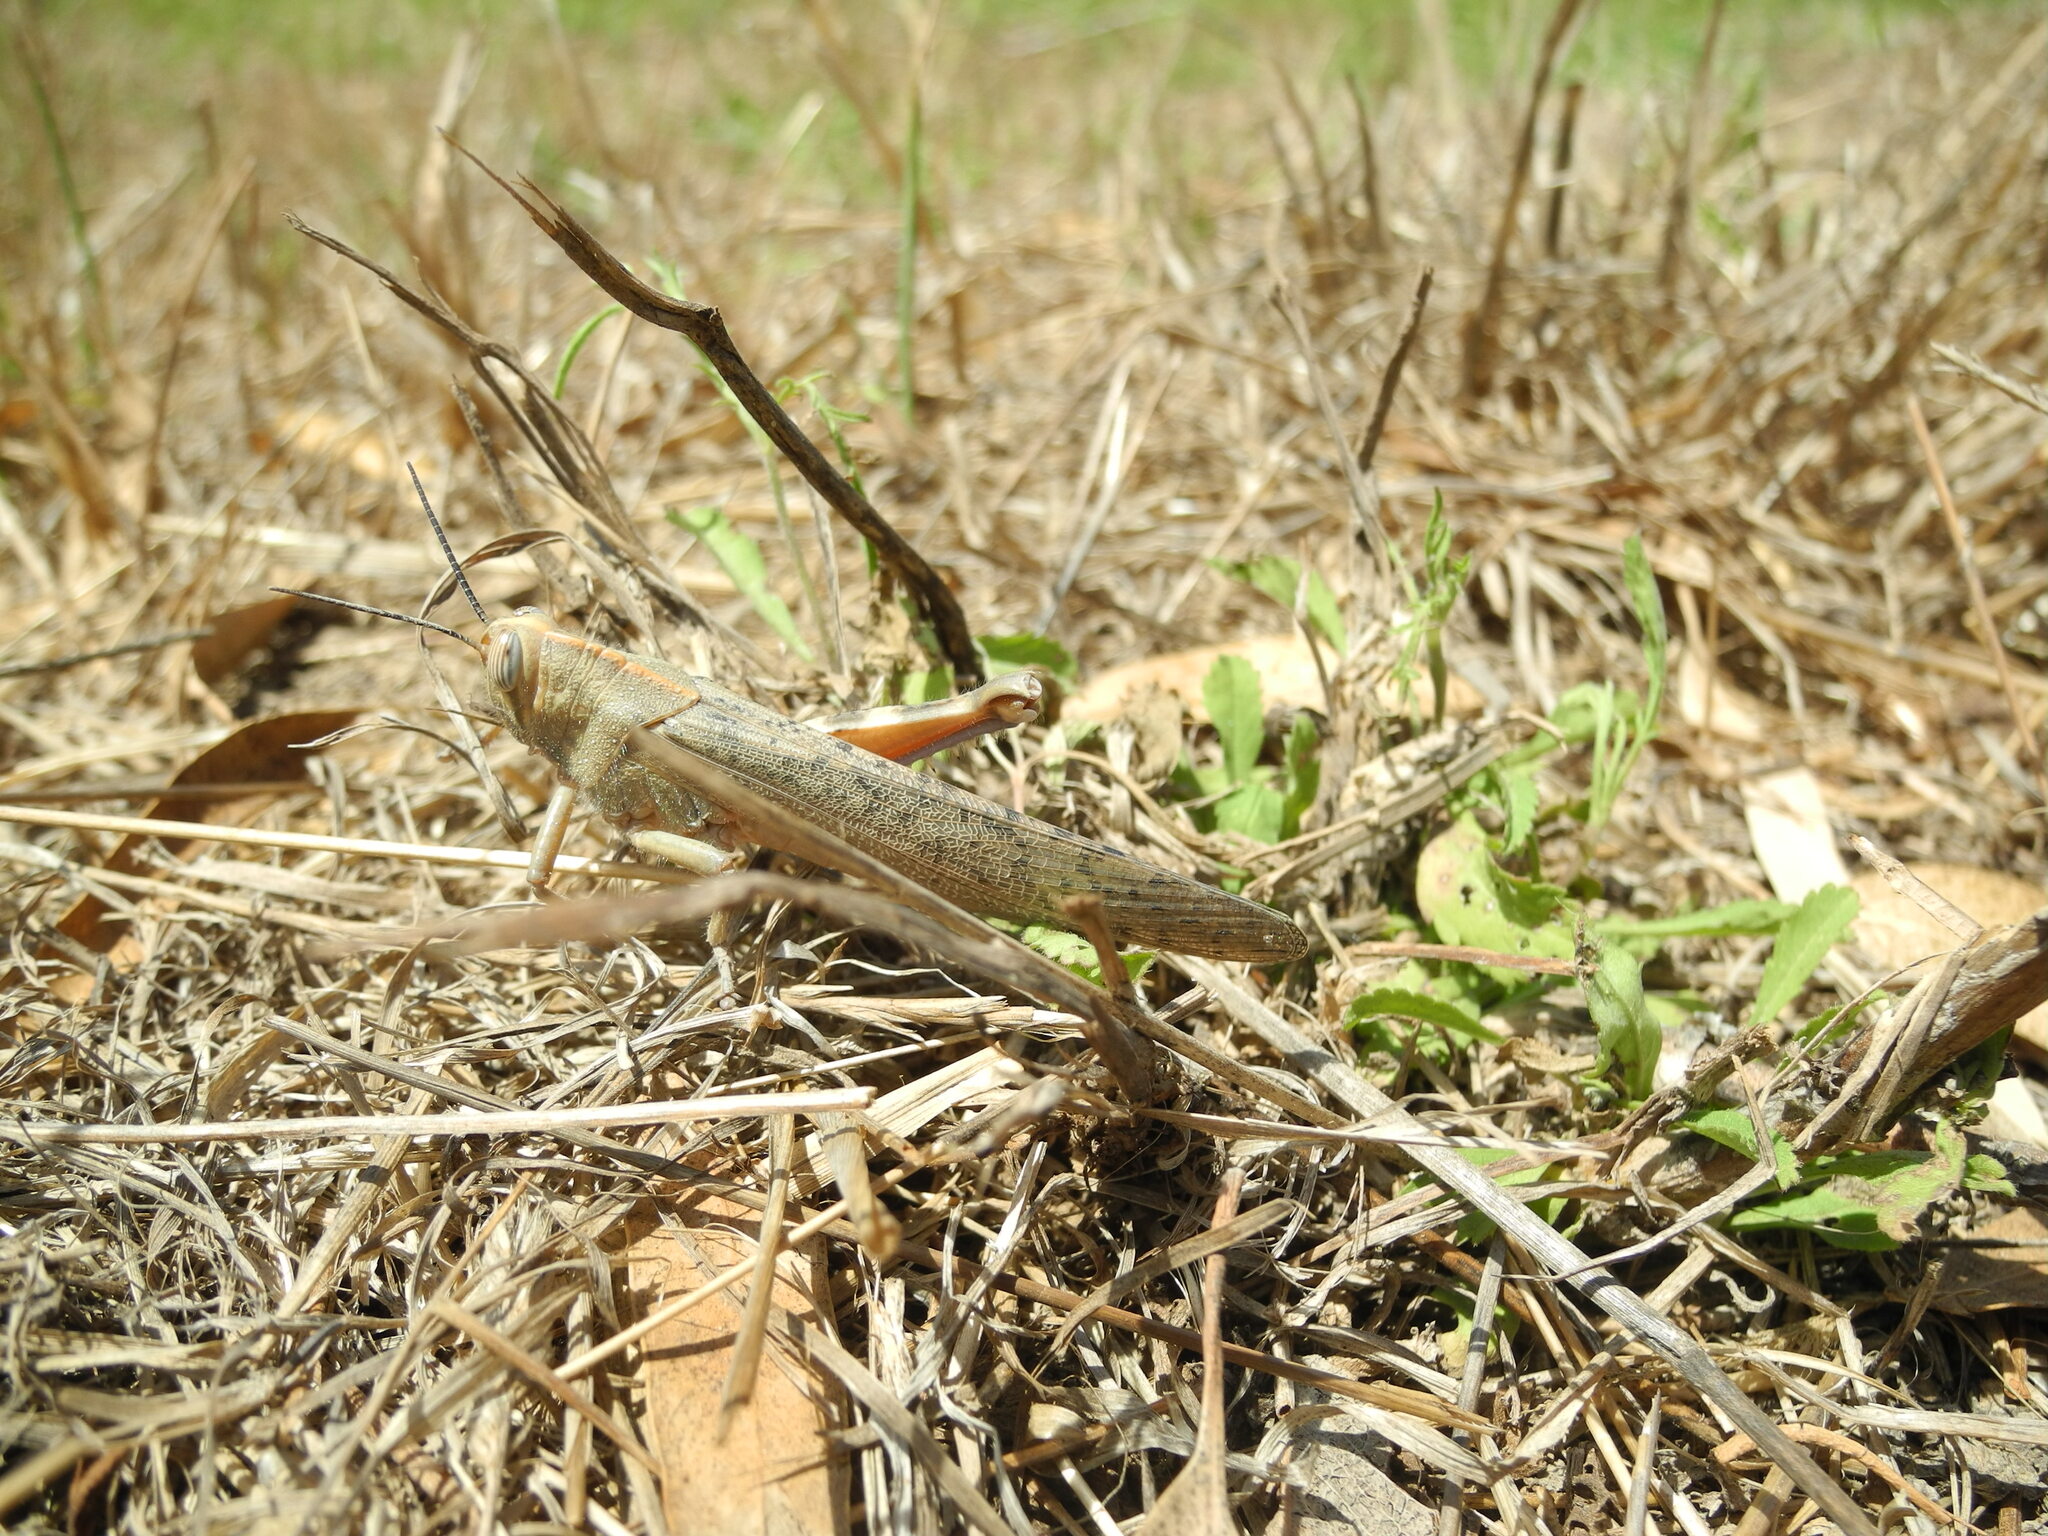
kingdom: Animalia
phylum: Arthropoda
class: Insecta
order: Orthoptera
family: Acrididae
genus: Anacridium
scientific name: Anacridium aegyptium
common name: Egyptian grasshopper
